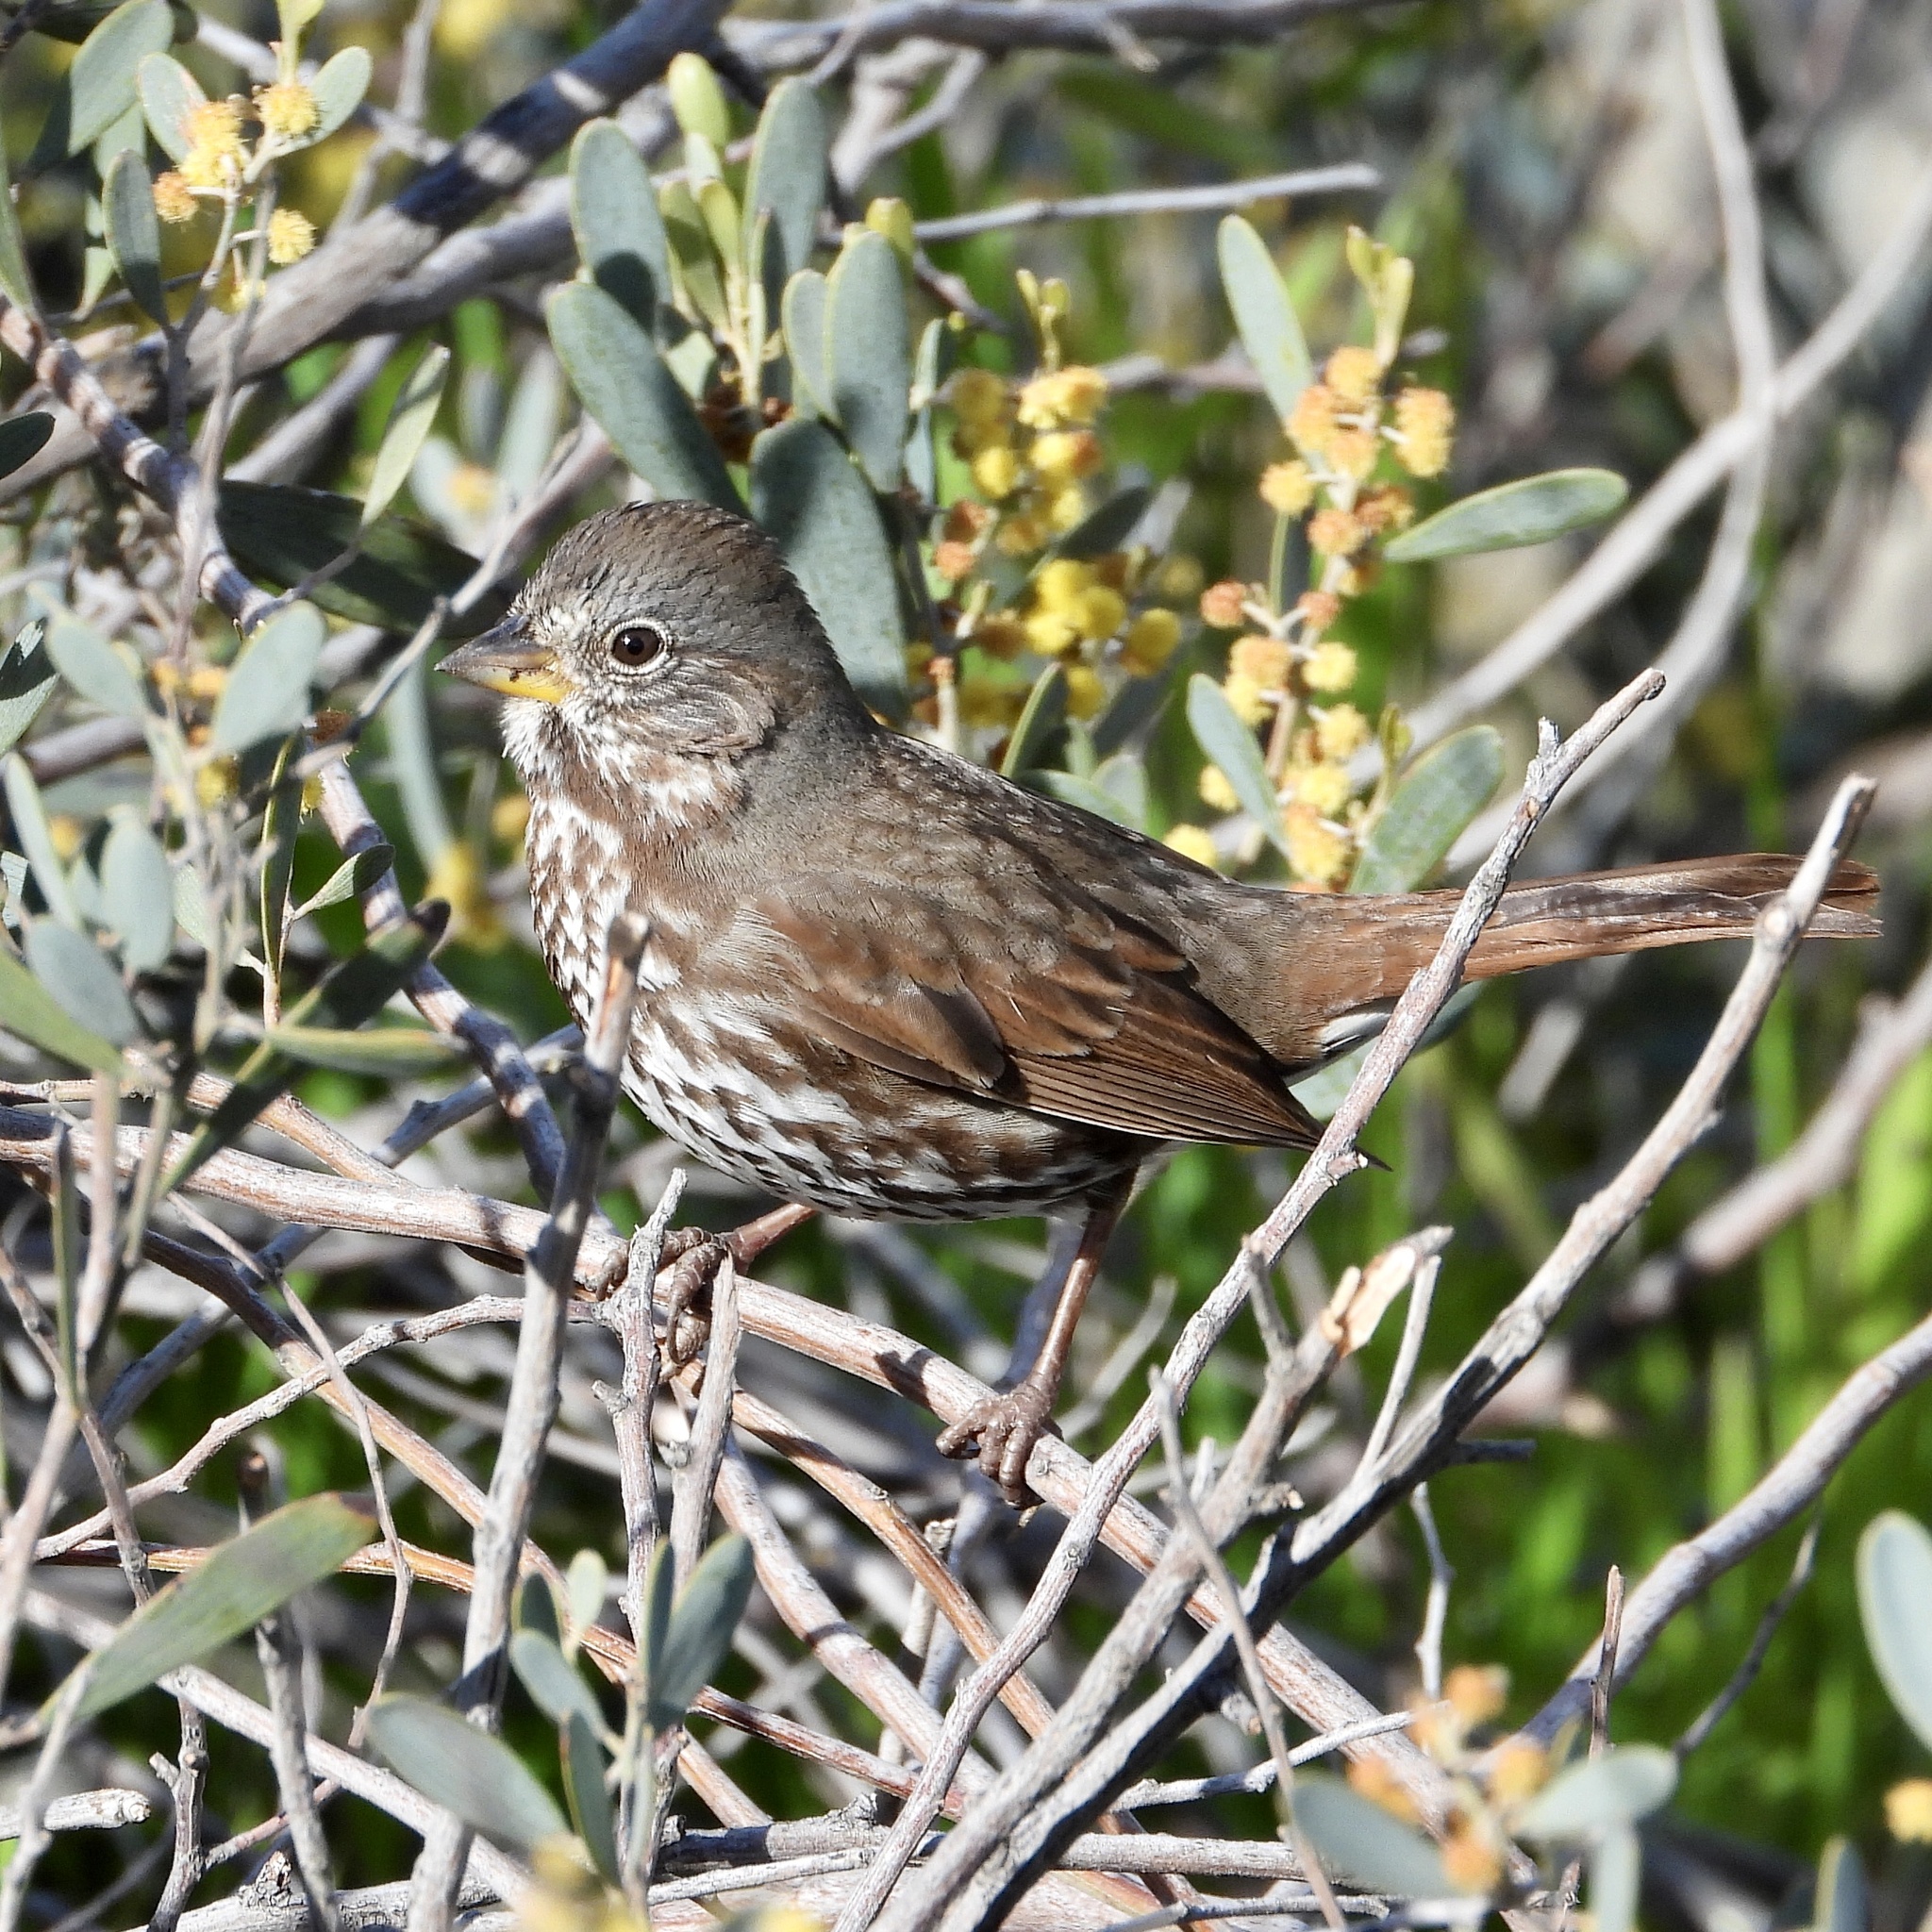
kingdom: Animalia
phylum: Chordata
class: Aves
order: Passeriformes
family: Passerellidae
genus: Passerella
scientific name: Passerella iliaca
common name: Fox sparrow
